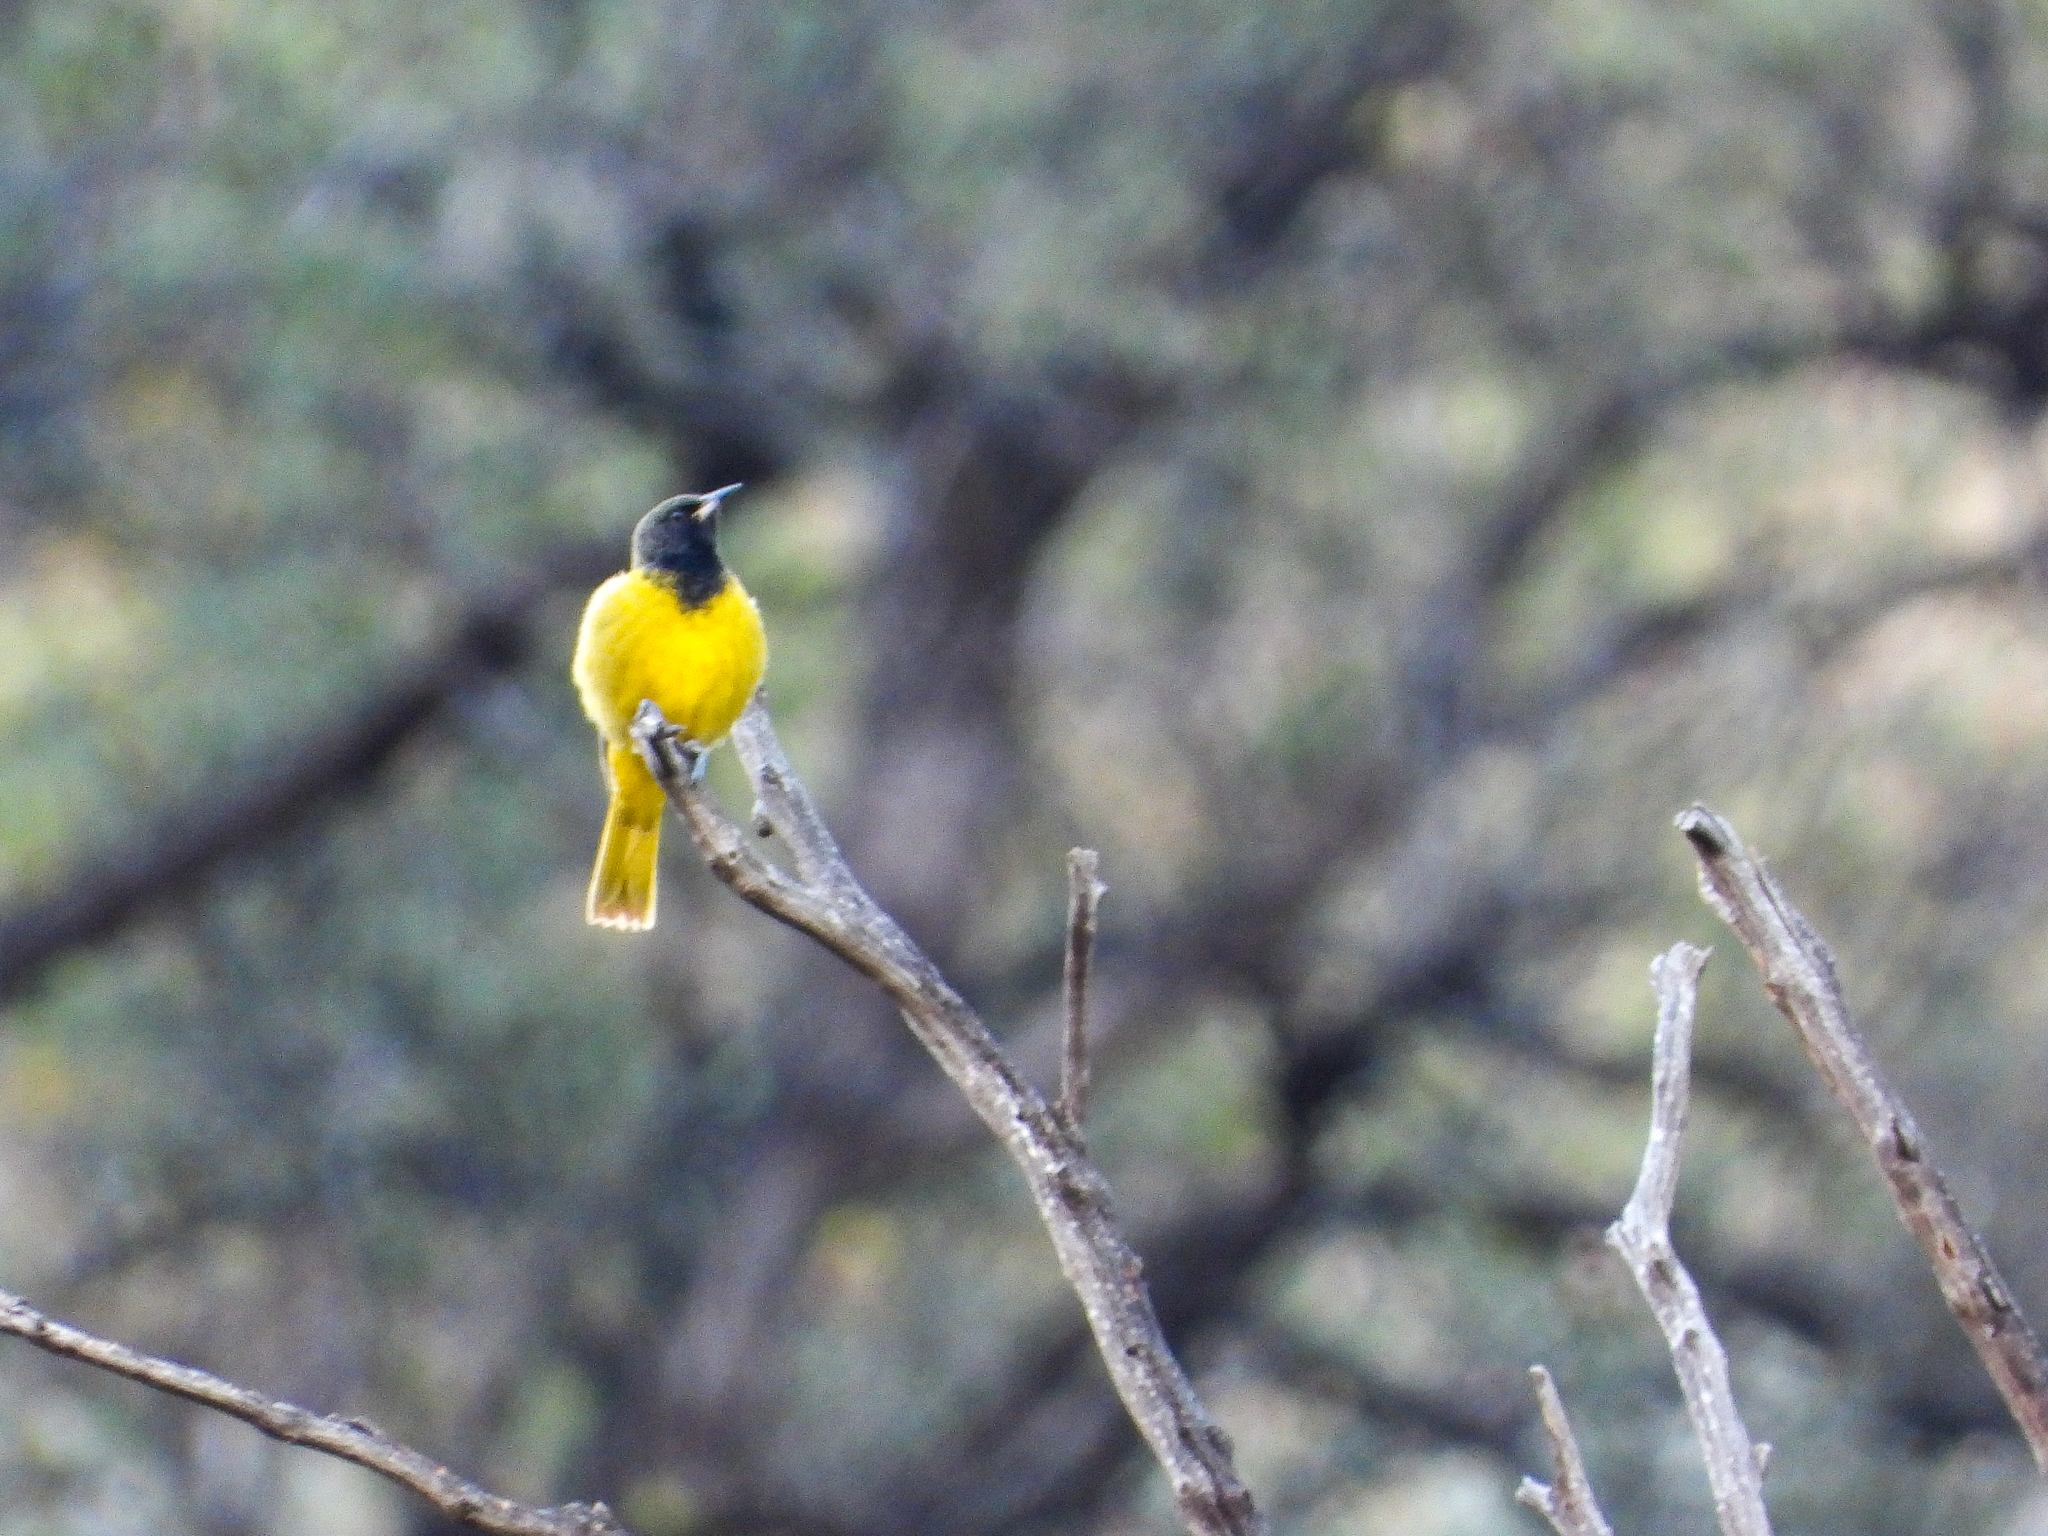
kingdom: Animalia
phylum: Chordata
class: Aves
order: Passeriformes
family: Icteridae
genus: Icterus
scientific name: Icterus parisorum
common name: Scott's oriole
